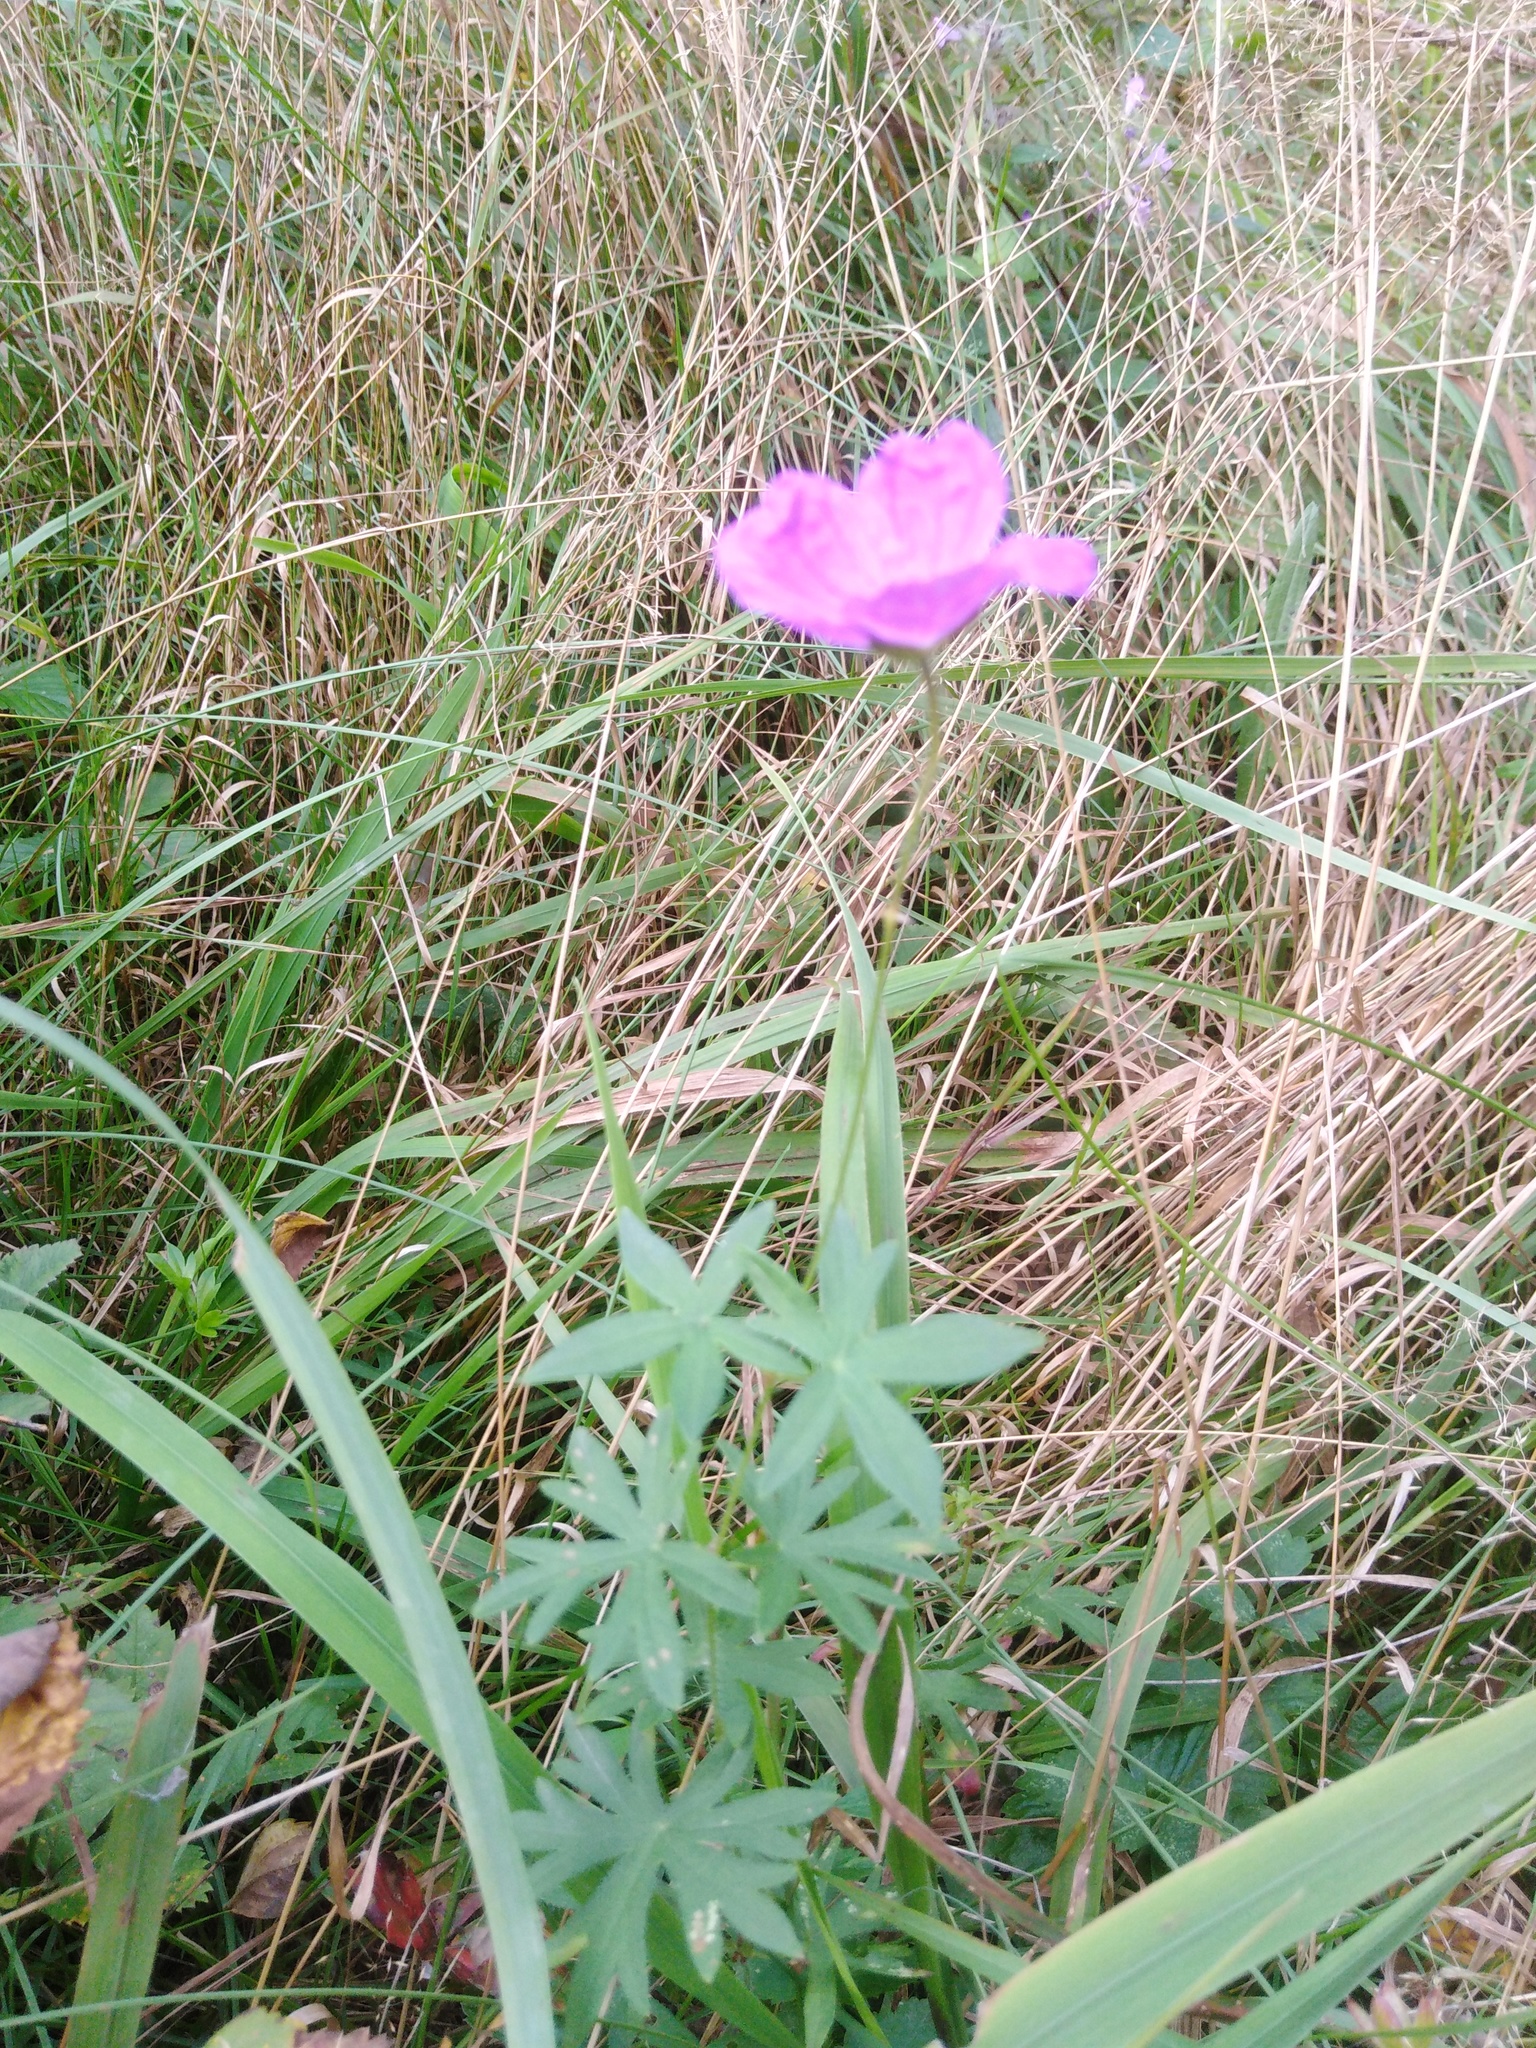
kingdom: Plantae
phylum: Tracheophyta
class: Magnoliopsida
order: Geraniales
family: Geraniaceae
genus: Geranium
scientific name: Geranium sanguineum
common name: Bloody crane's-bill
